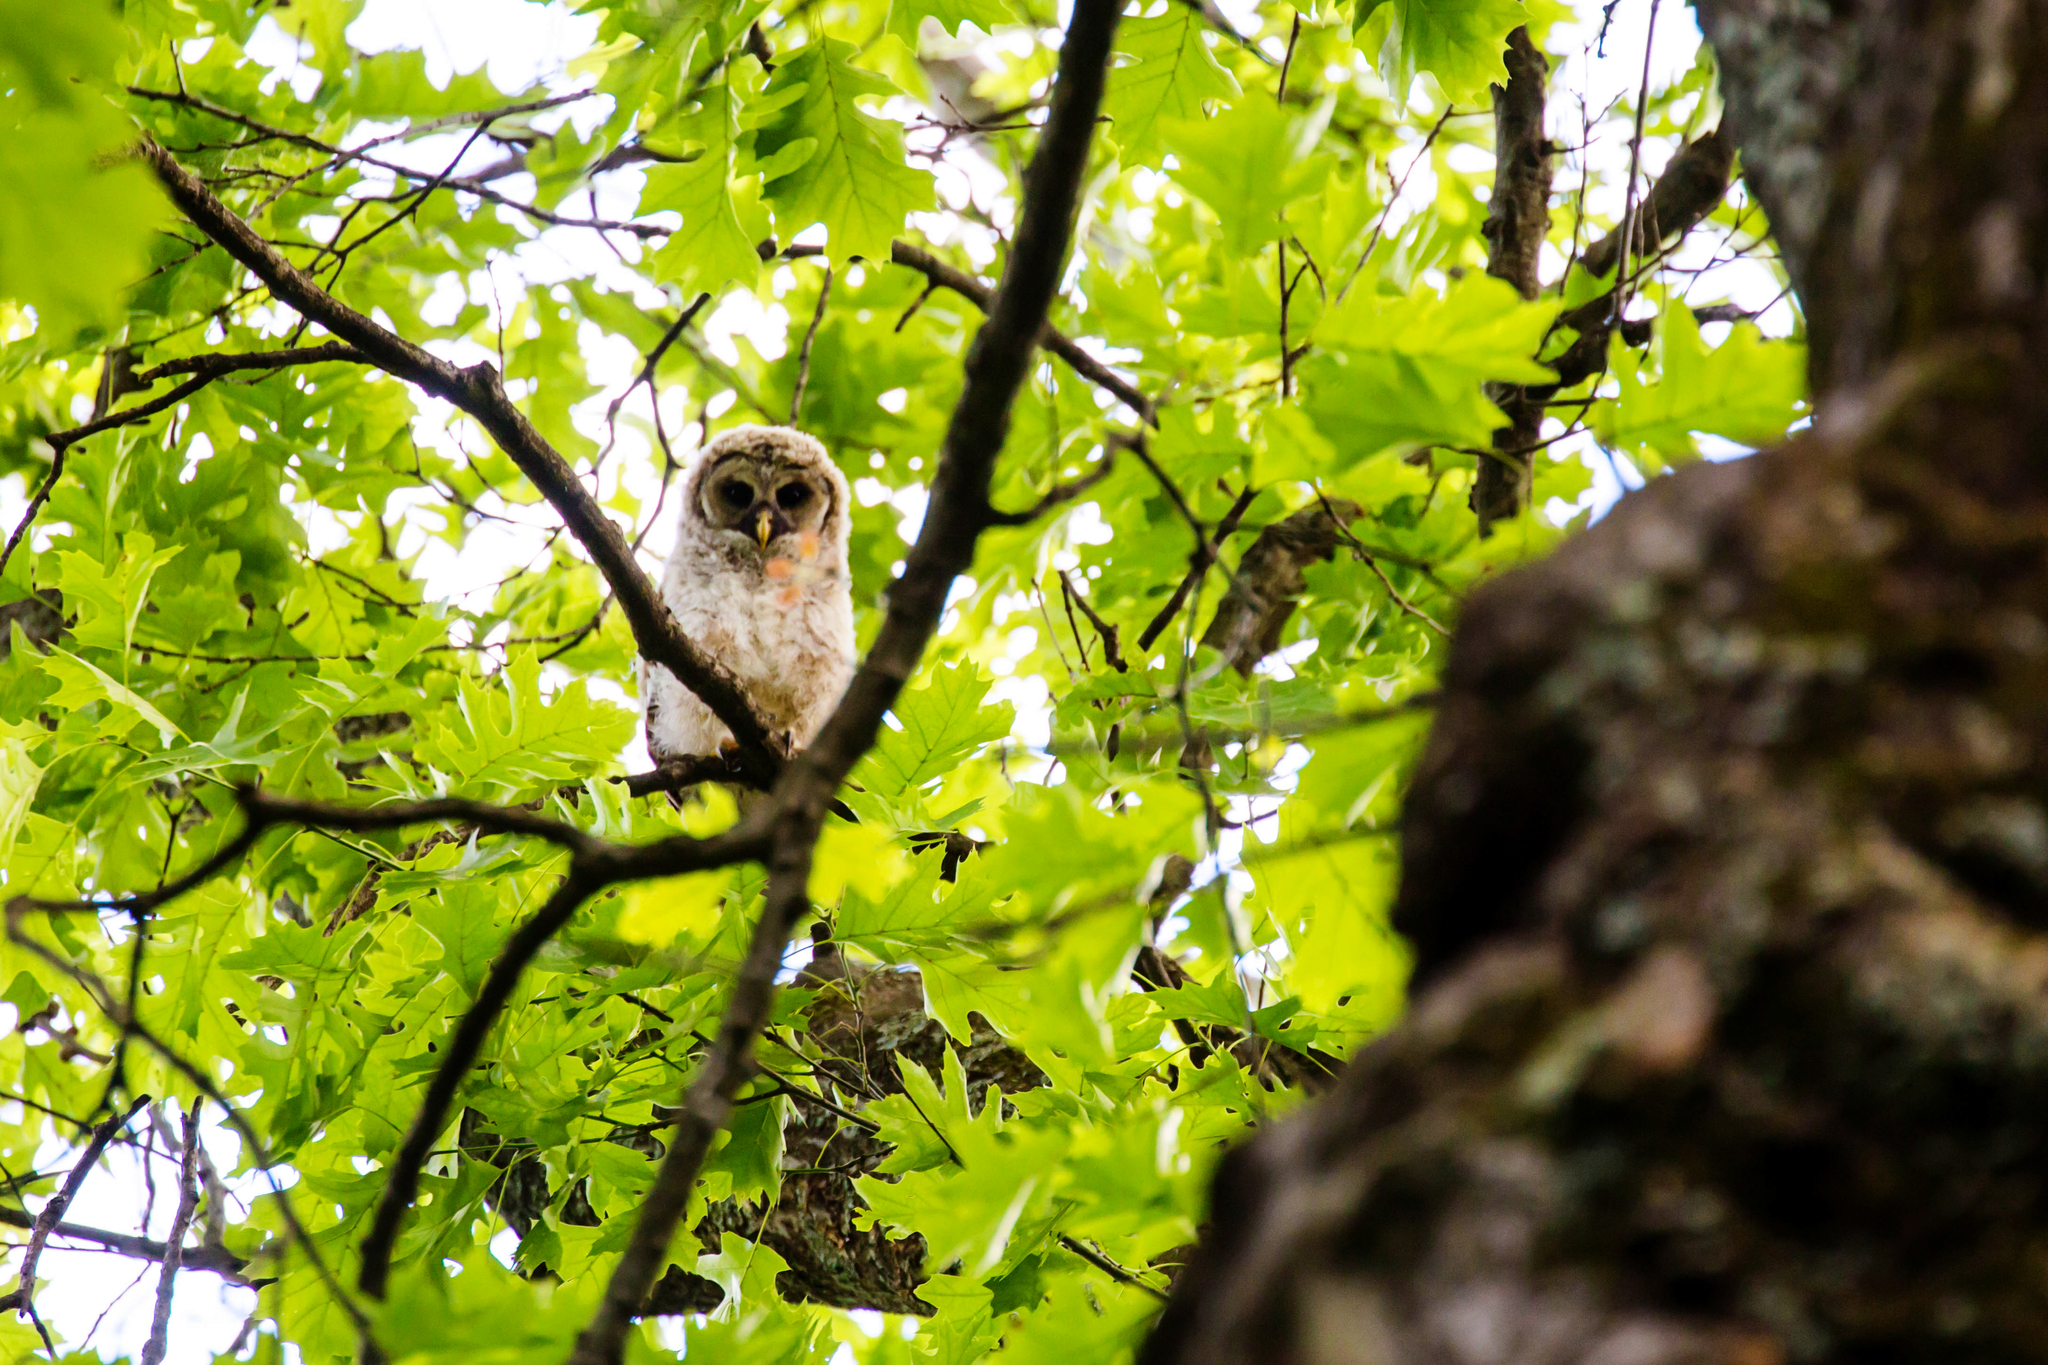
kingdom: Animalia
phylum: Chordata
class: Aves
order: Strigiformes
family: Strigidae
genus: Strix
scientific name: Strix varia
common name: Barred owl
